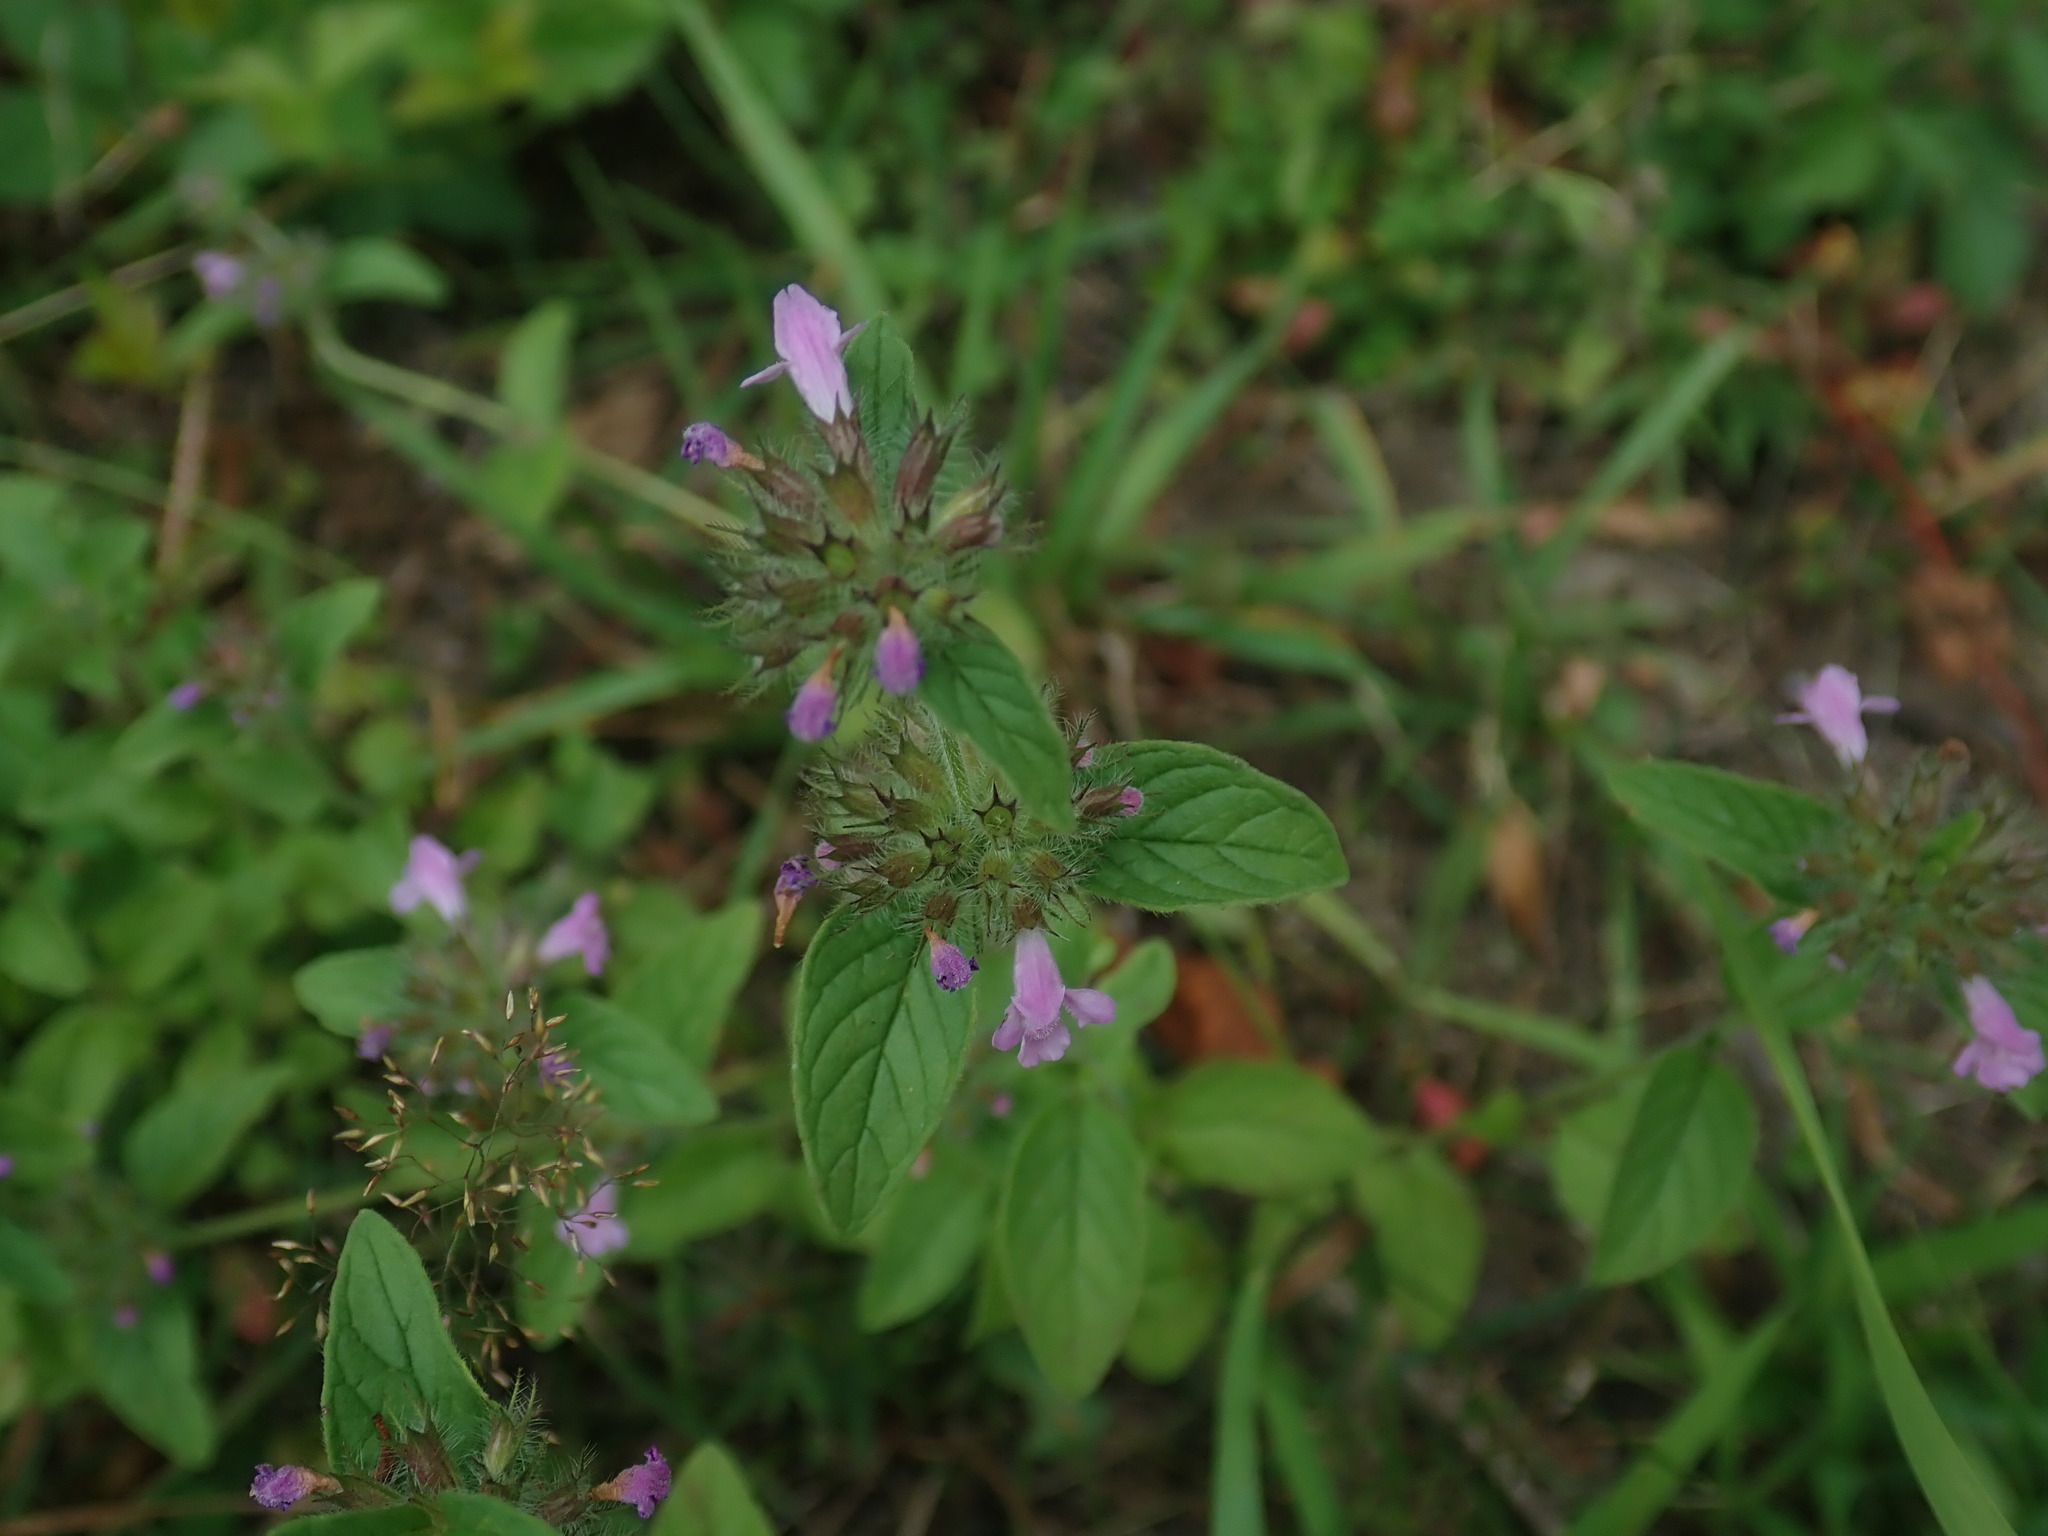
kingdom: Plantae
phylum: Tracheophyta
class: Magnoliopsida
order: Lamiales
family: Lamiaceae
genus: Clinopodium
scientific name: Clinopodium vulgare
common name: Wild basil
